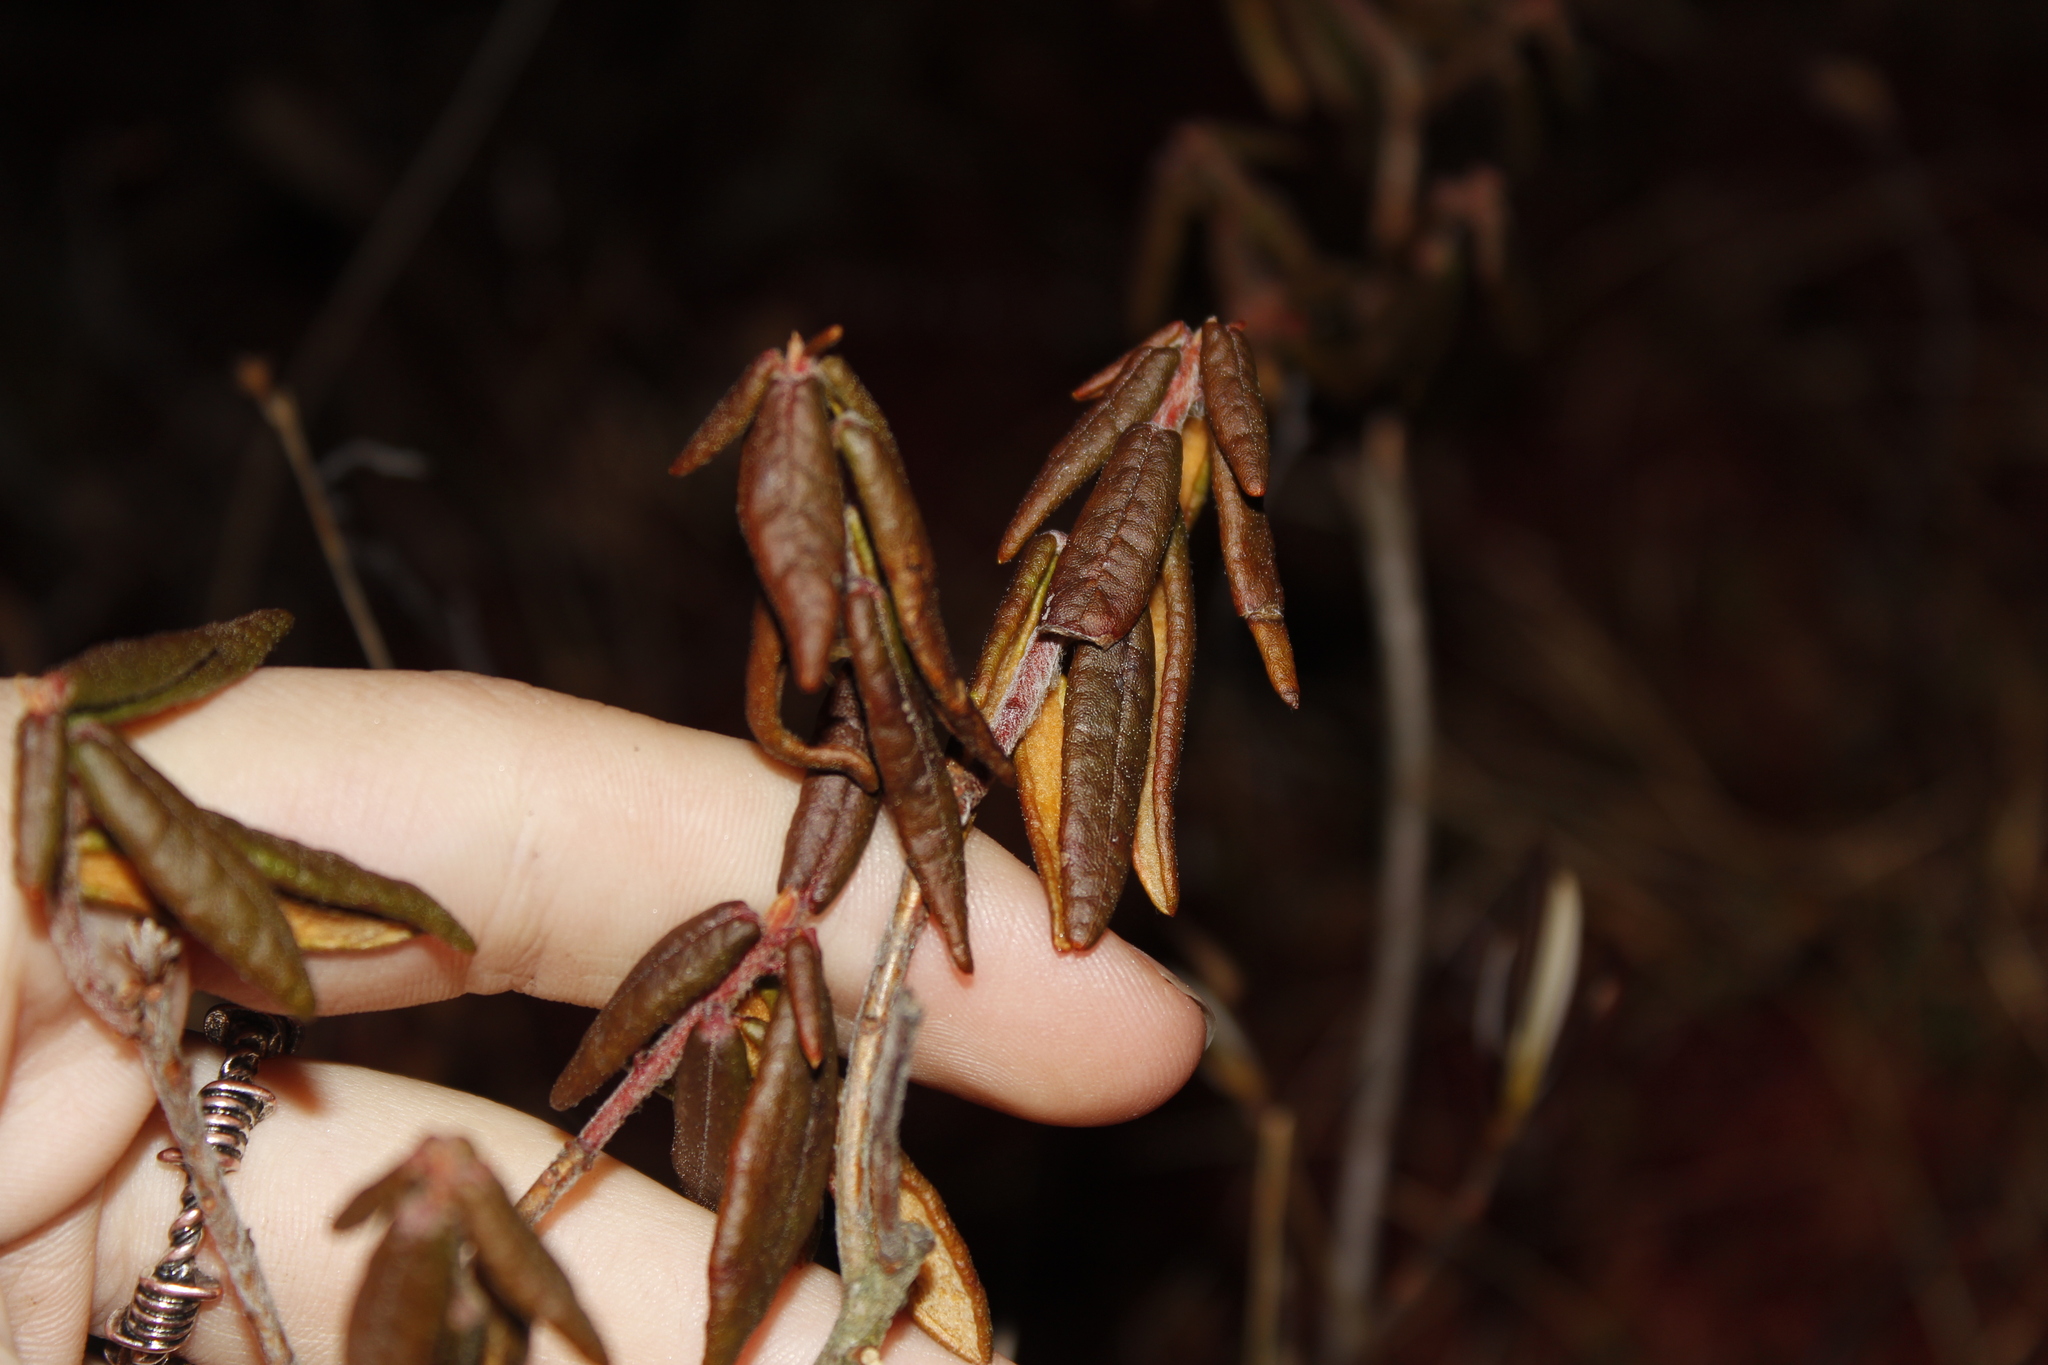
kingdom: Plantae
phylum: Tracheophyta
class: Magnoliopsida
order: Ericales
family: Ericaceae
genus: Rhododendron
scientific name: Rhododendron groenlandicum
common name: Bog labrador tea
